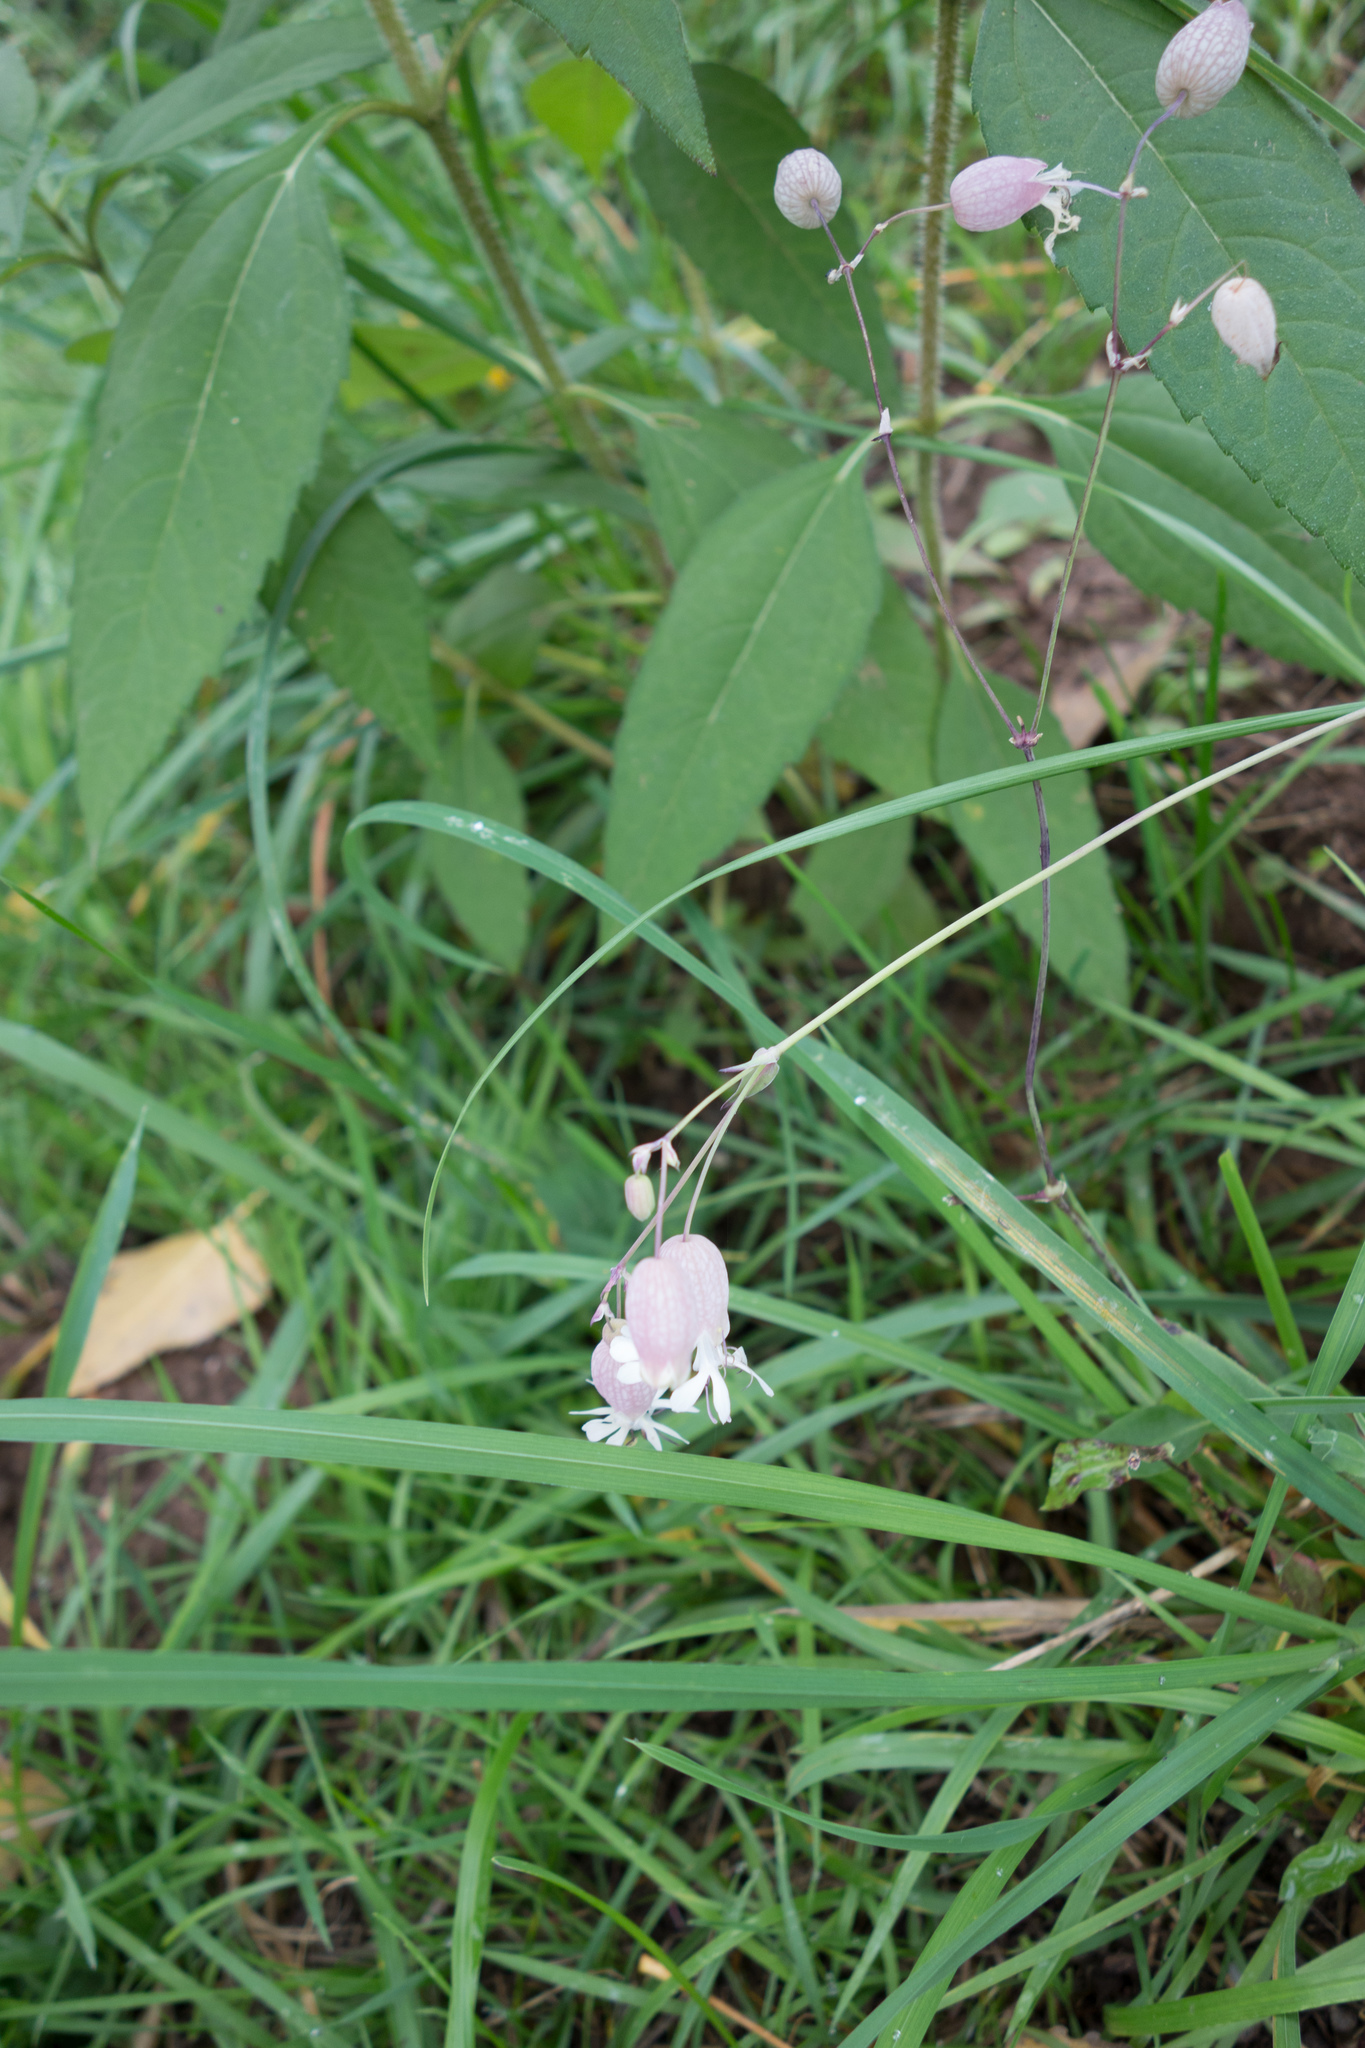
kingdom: Plantae
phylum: Tracheophyta
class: Magnoliopsida
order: Caryophyllales
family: Caryophyllaceae
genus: Silene
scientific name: Silene vulgaris
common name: Bladder campion
